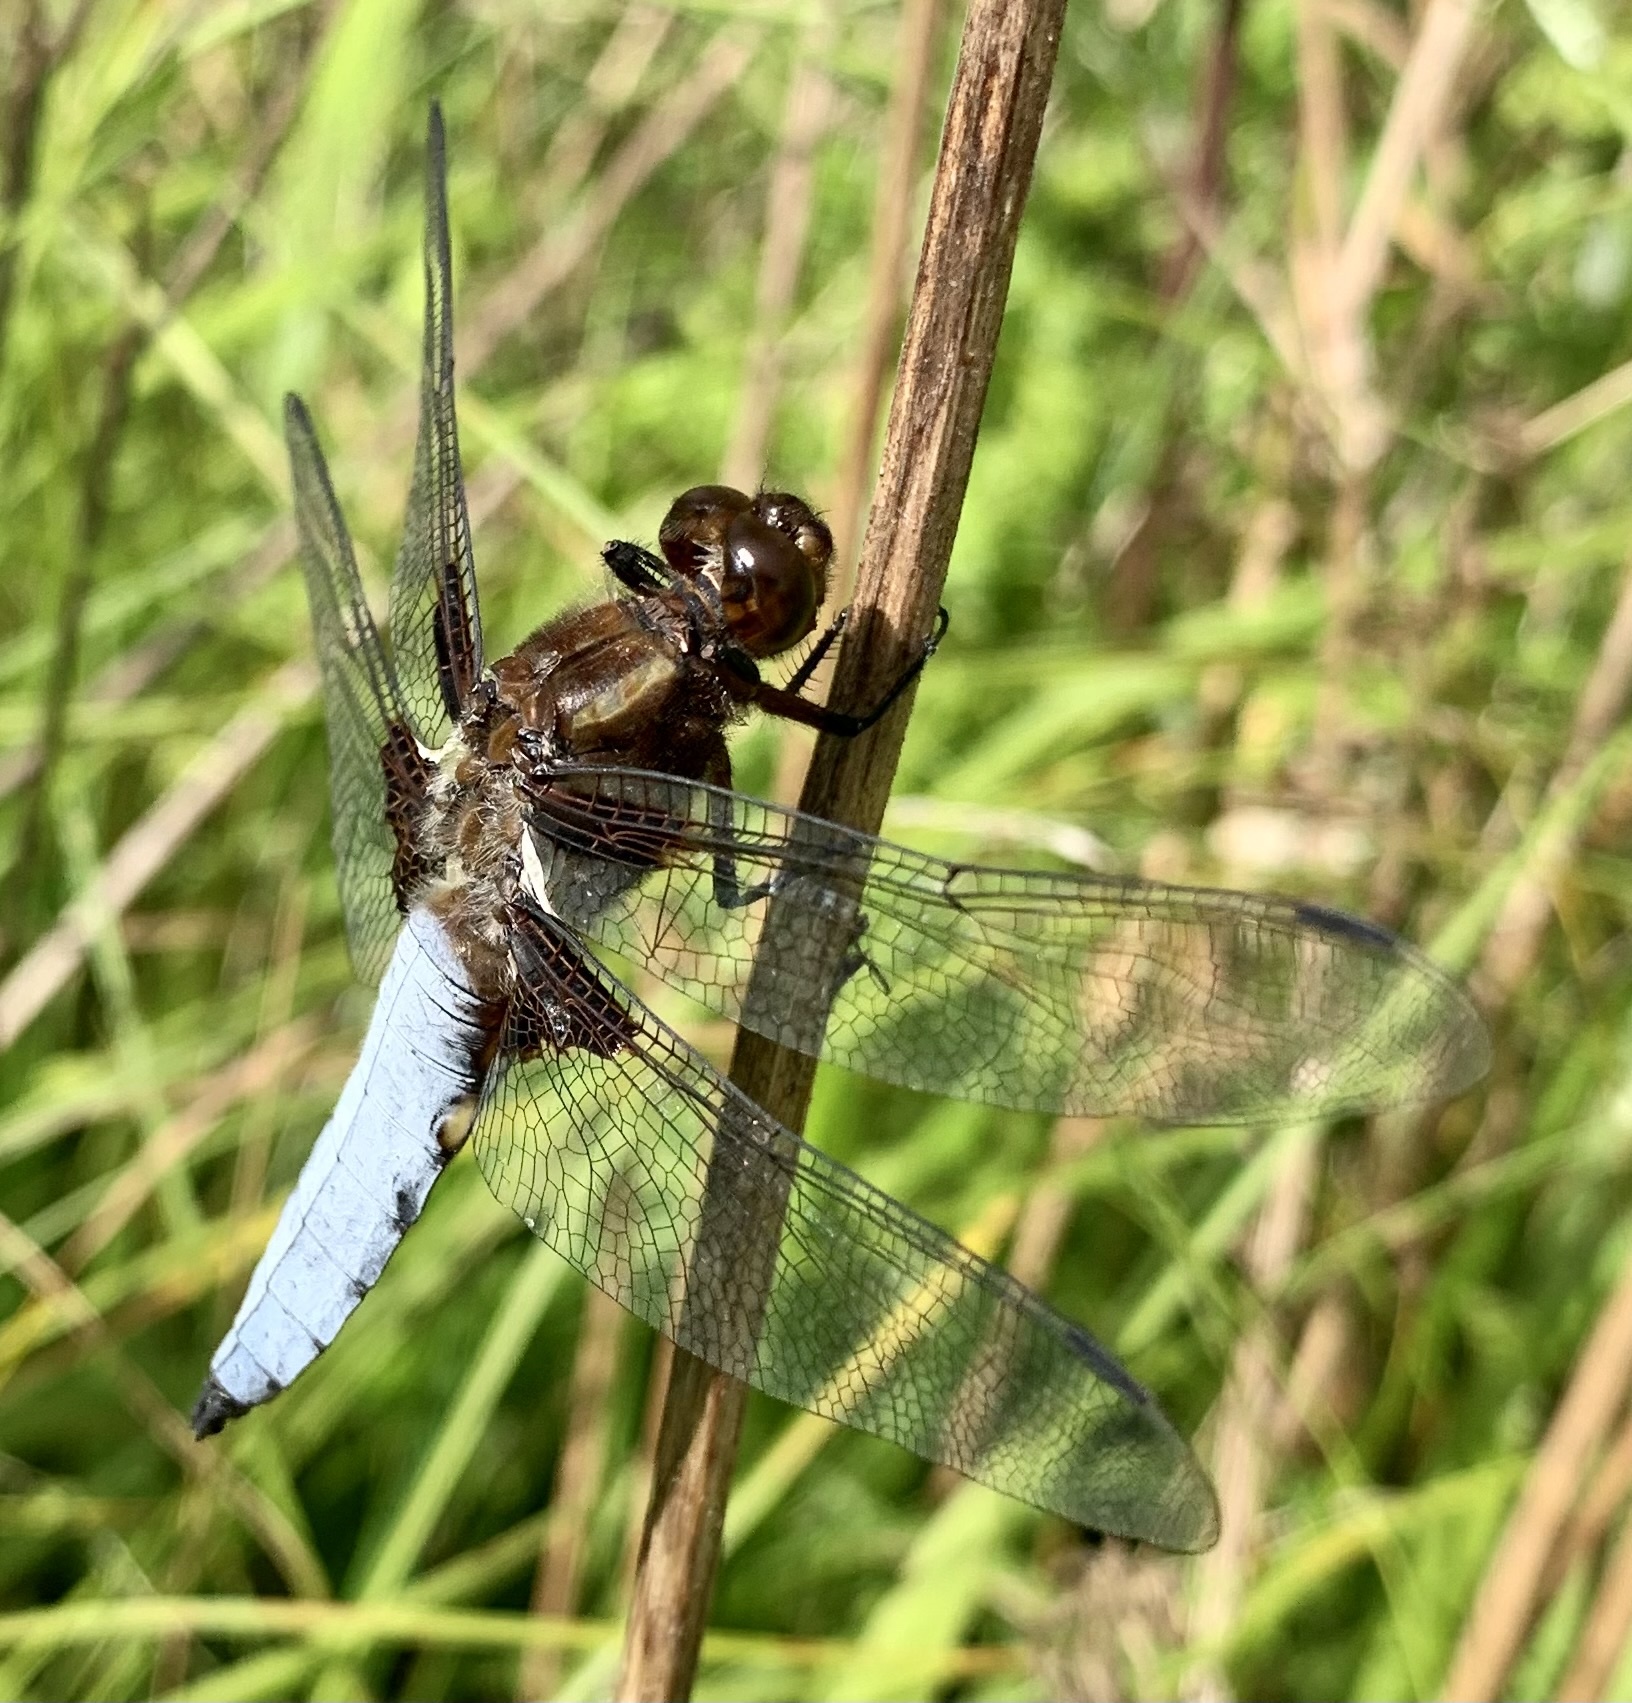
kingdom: Animalia
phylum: Arthropoda
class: Insecta
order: Odonata
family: Libellulidae
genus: Libellula
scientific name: Libellula depressa
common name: Broad-bodied chaser
